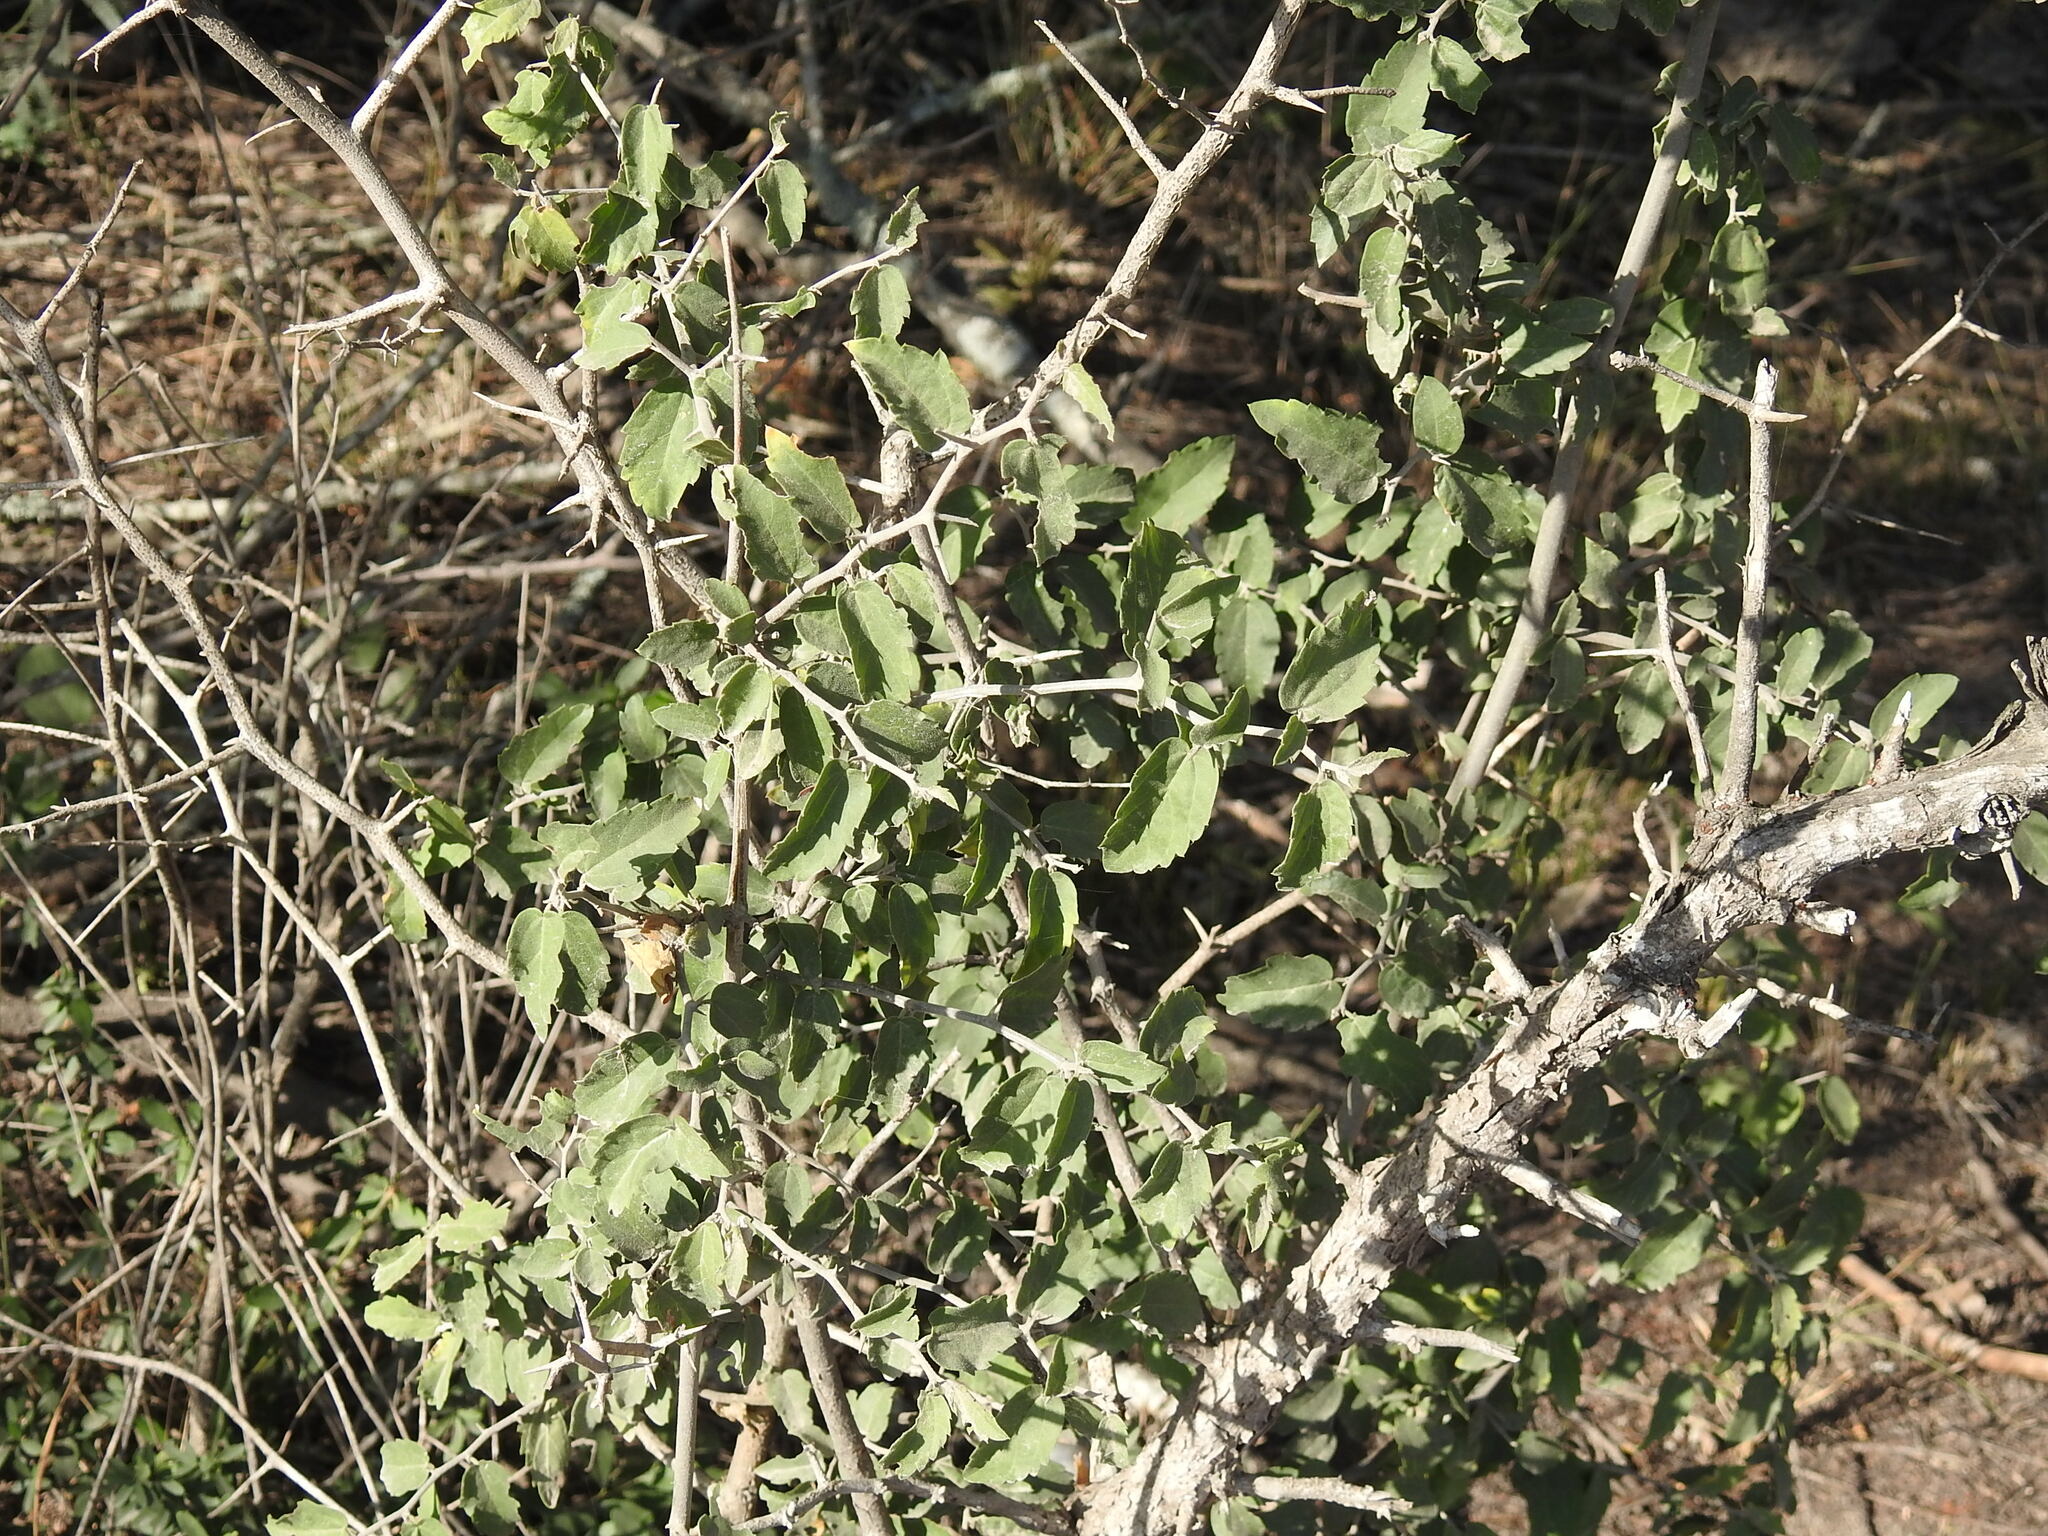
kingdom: Plantae
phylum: Tracheophyta
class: Magnoliopsida
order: Rosales
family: Cannabaceae
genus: Celtis
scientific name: Celtis pallida
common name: Desert hackberry
